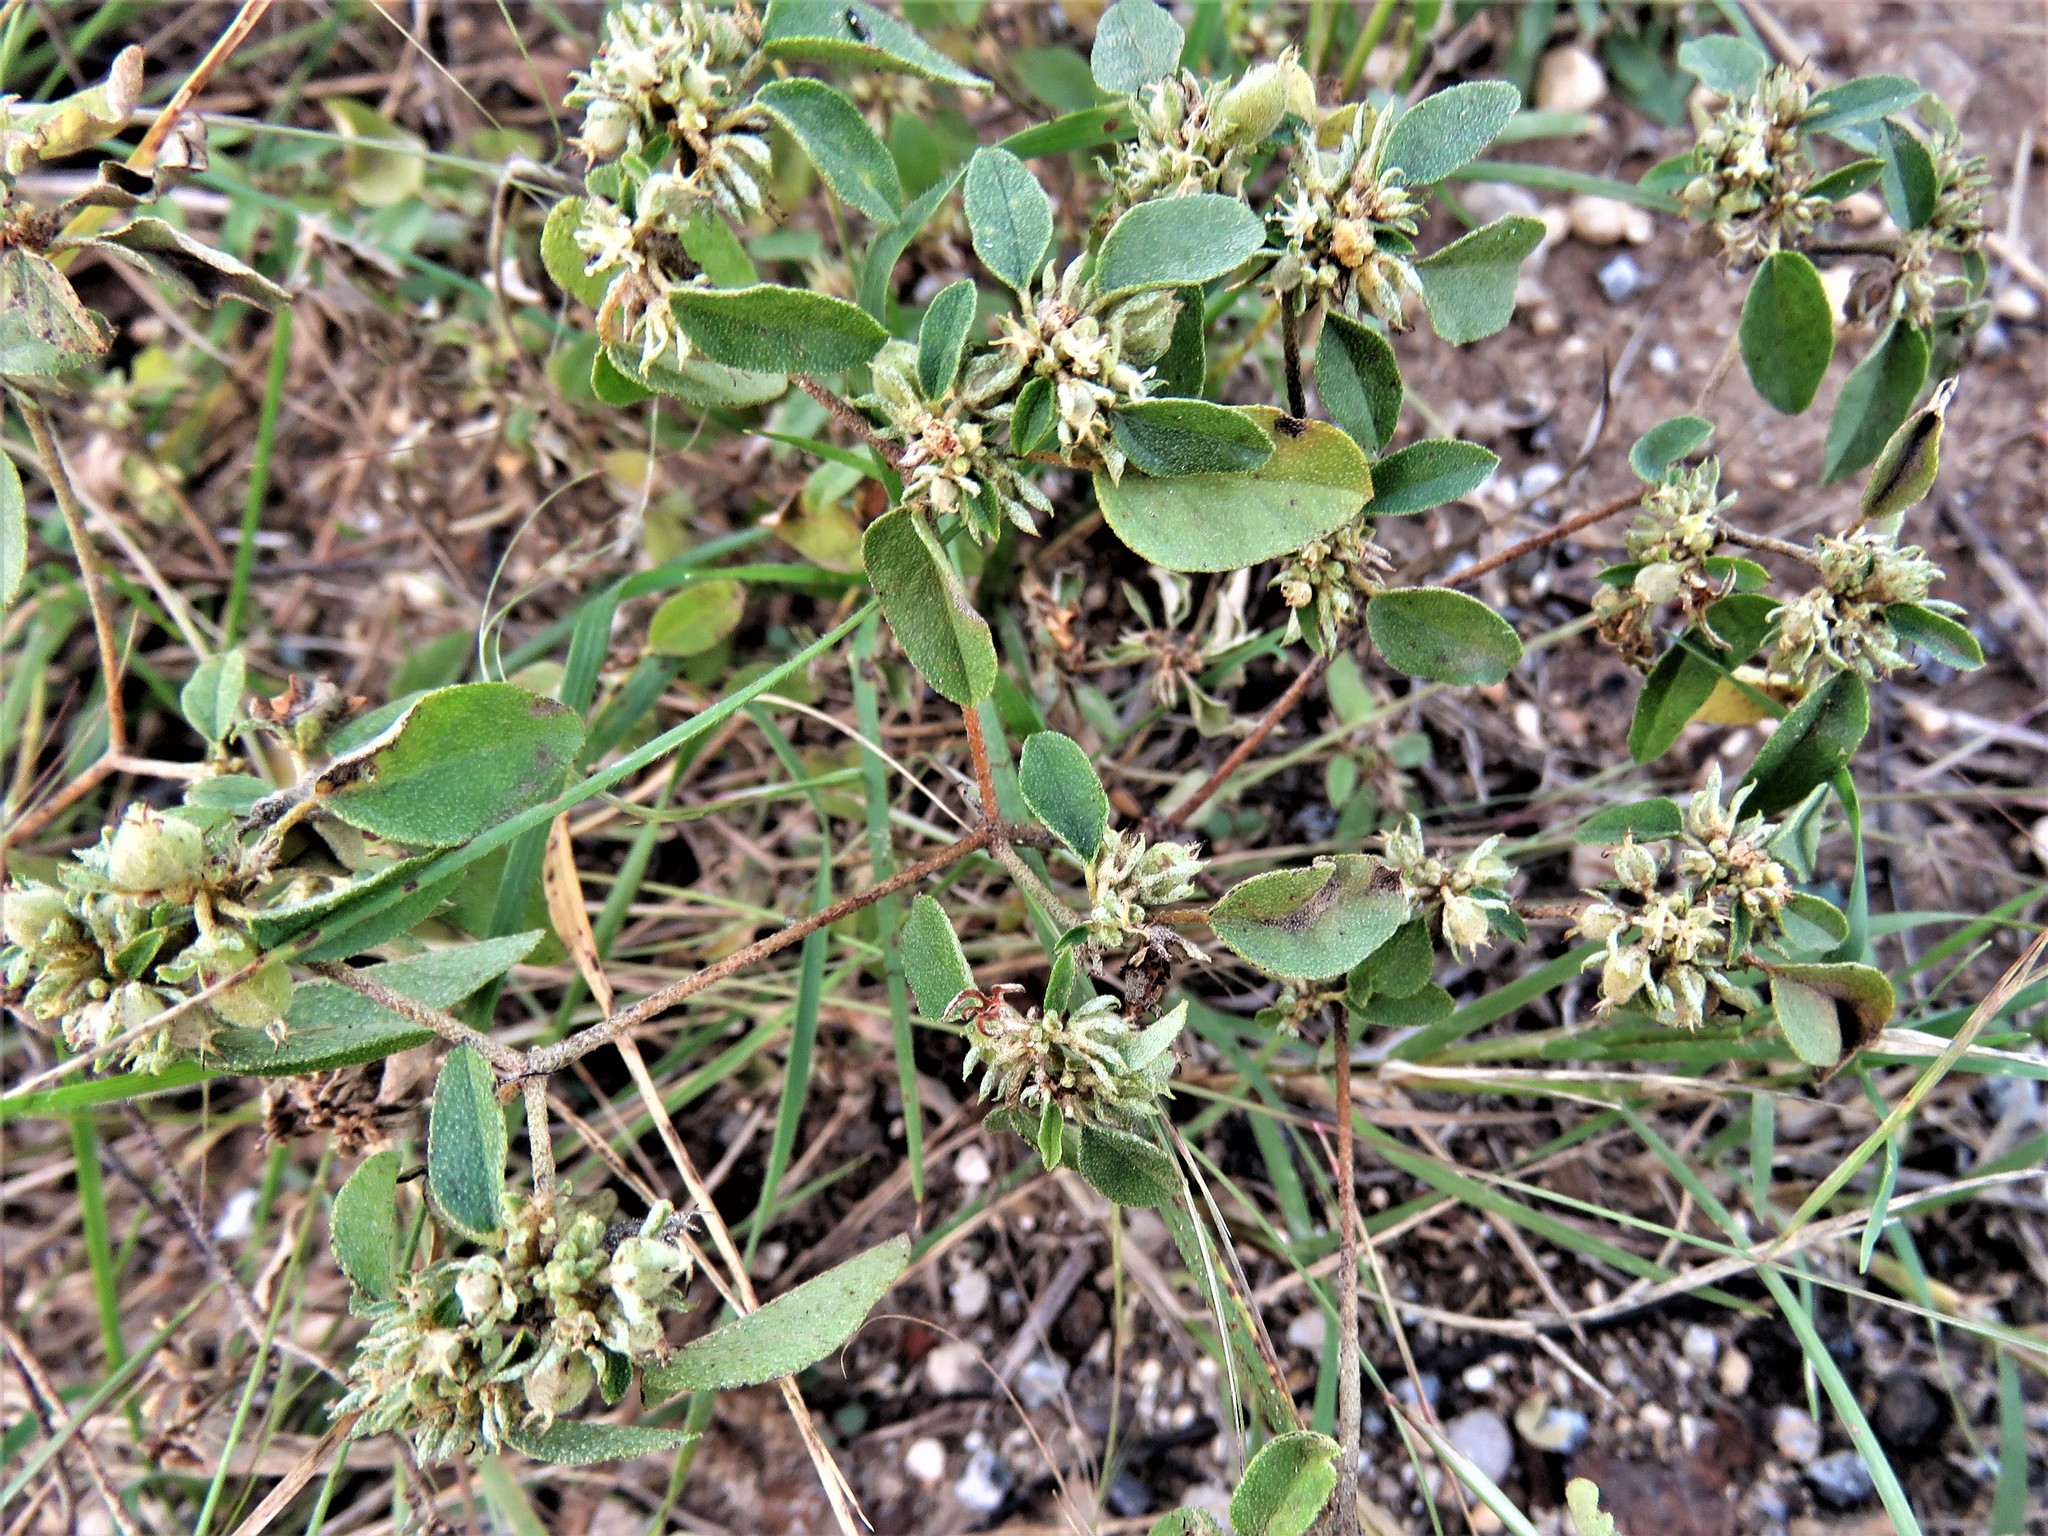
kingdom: Plantae
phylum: Tracheophyta
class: Magnoliopsida
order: Malpighiales
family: Euphorbiaceae
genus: Croton
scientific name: Croton monanthogynus
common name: One-seed croton
